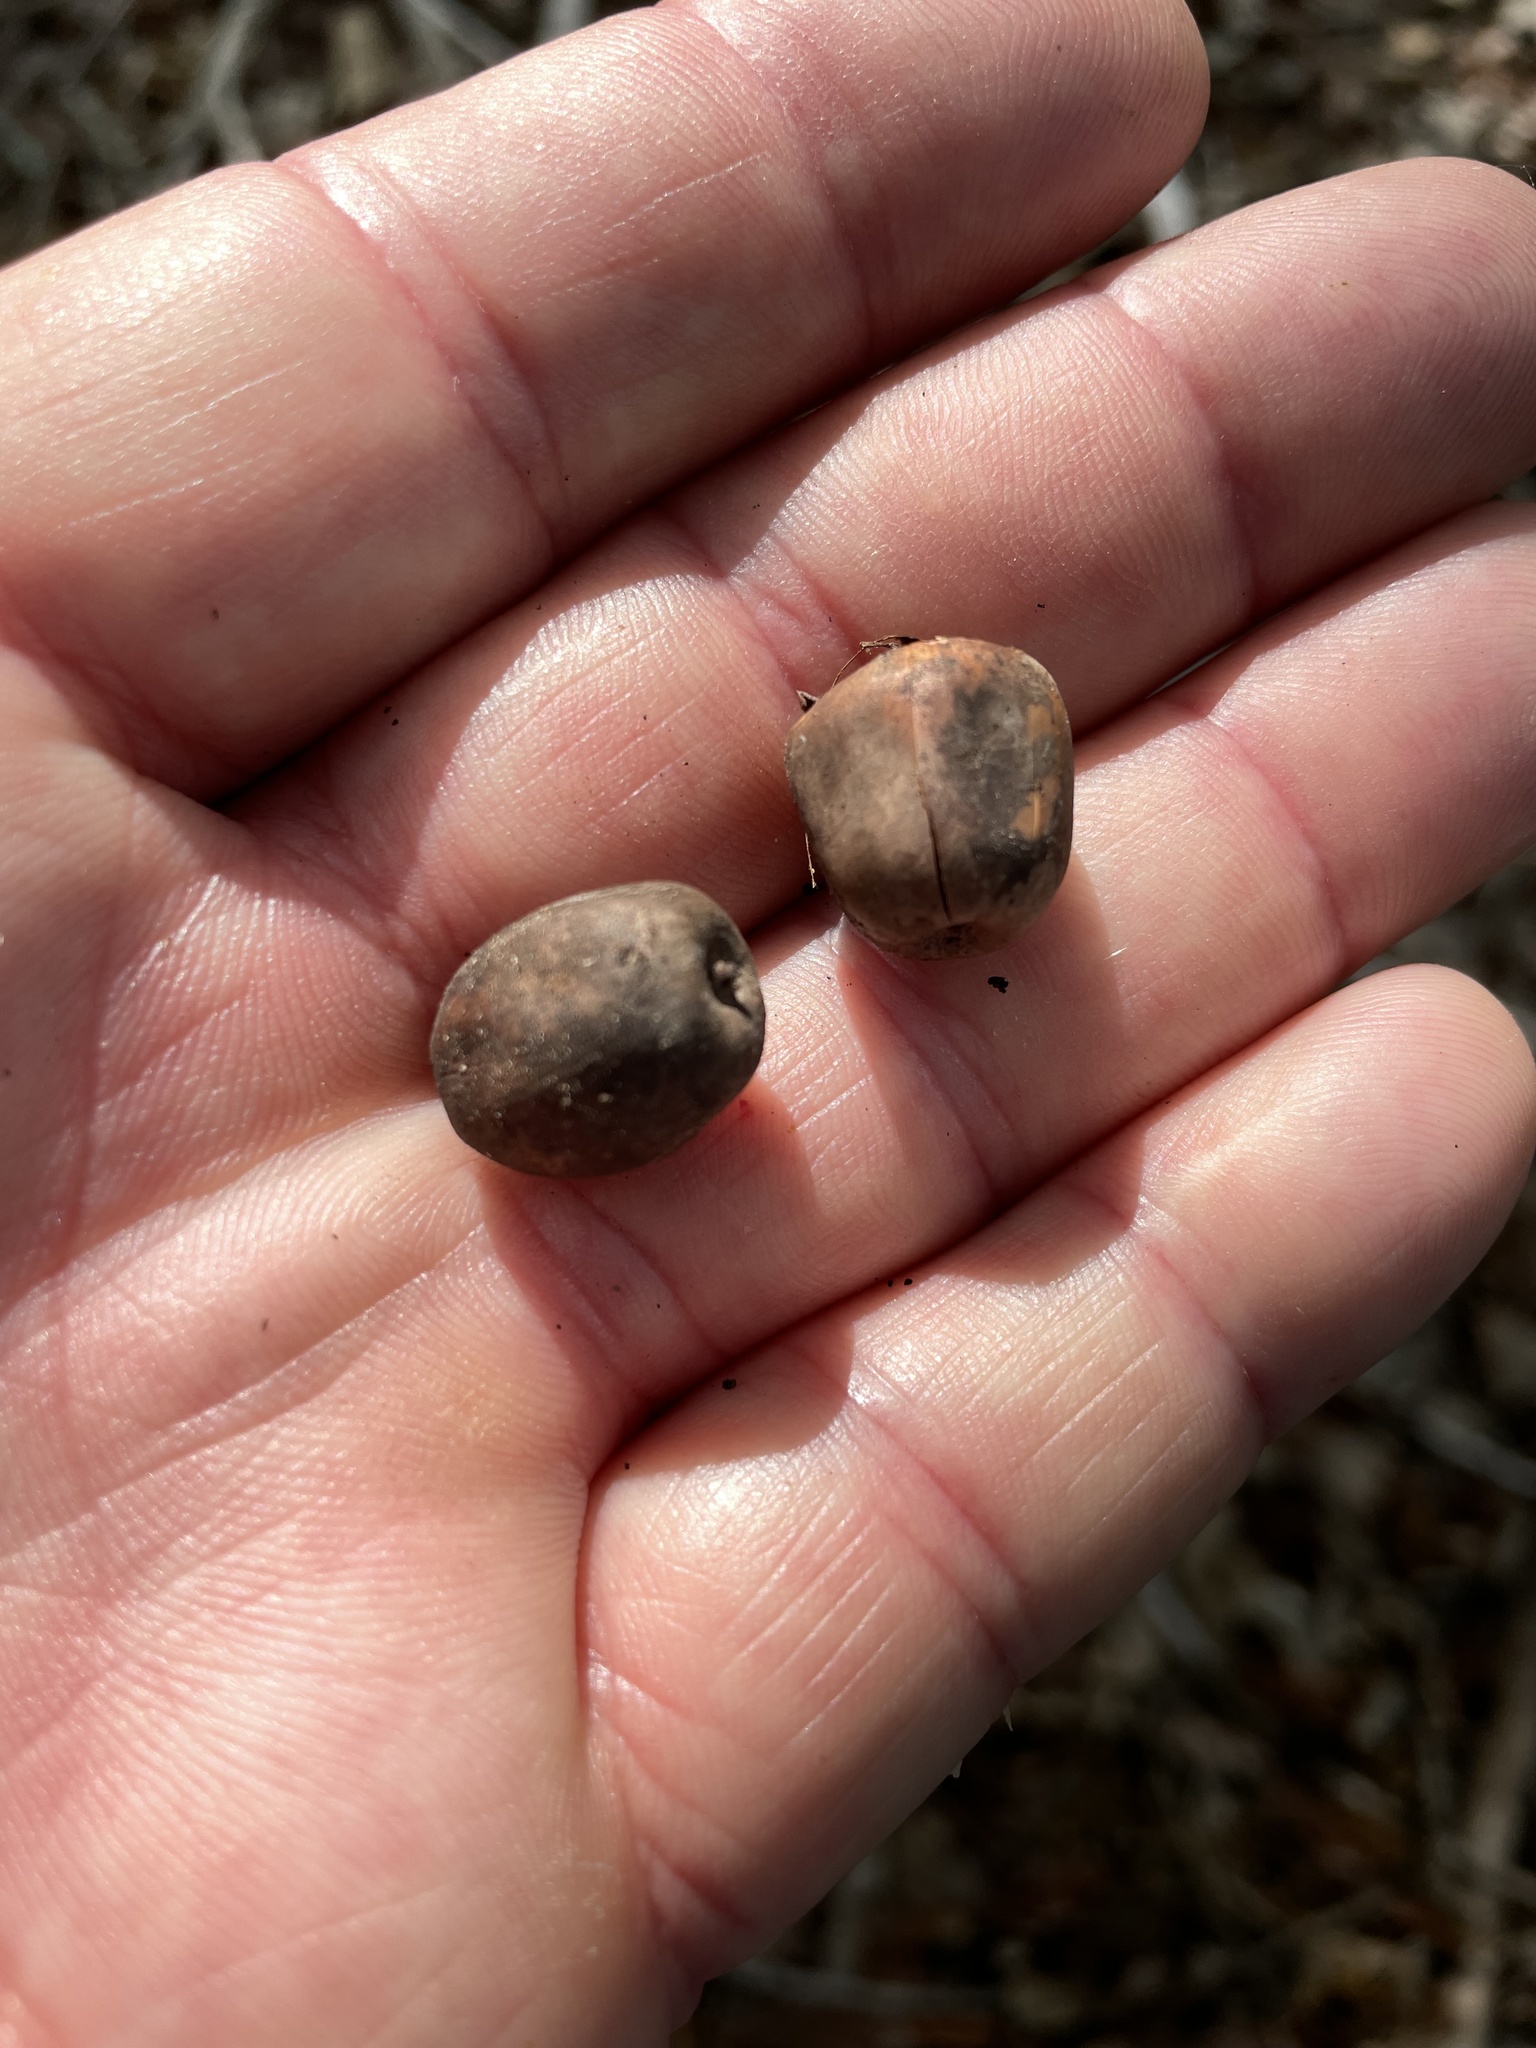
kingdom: Plantae
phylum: Tracheophyta
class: Magnoliopsida
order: Fagales
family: Fagaceae
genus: Quercus
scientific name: Quercus sinuata
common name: Durand oak
